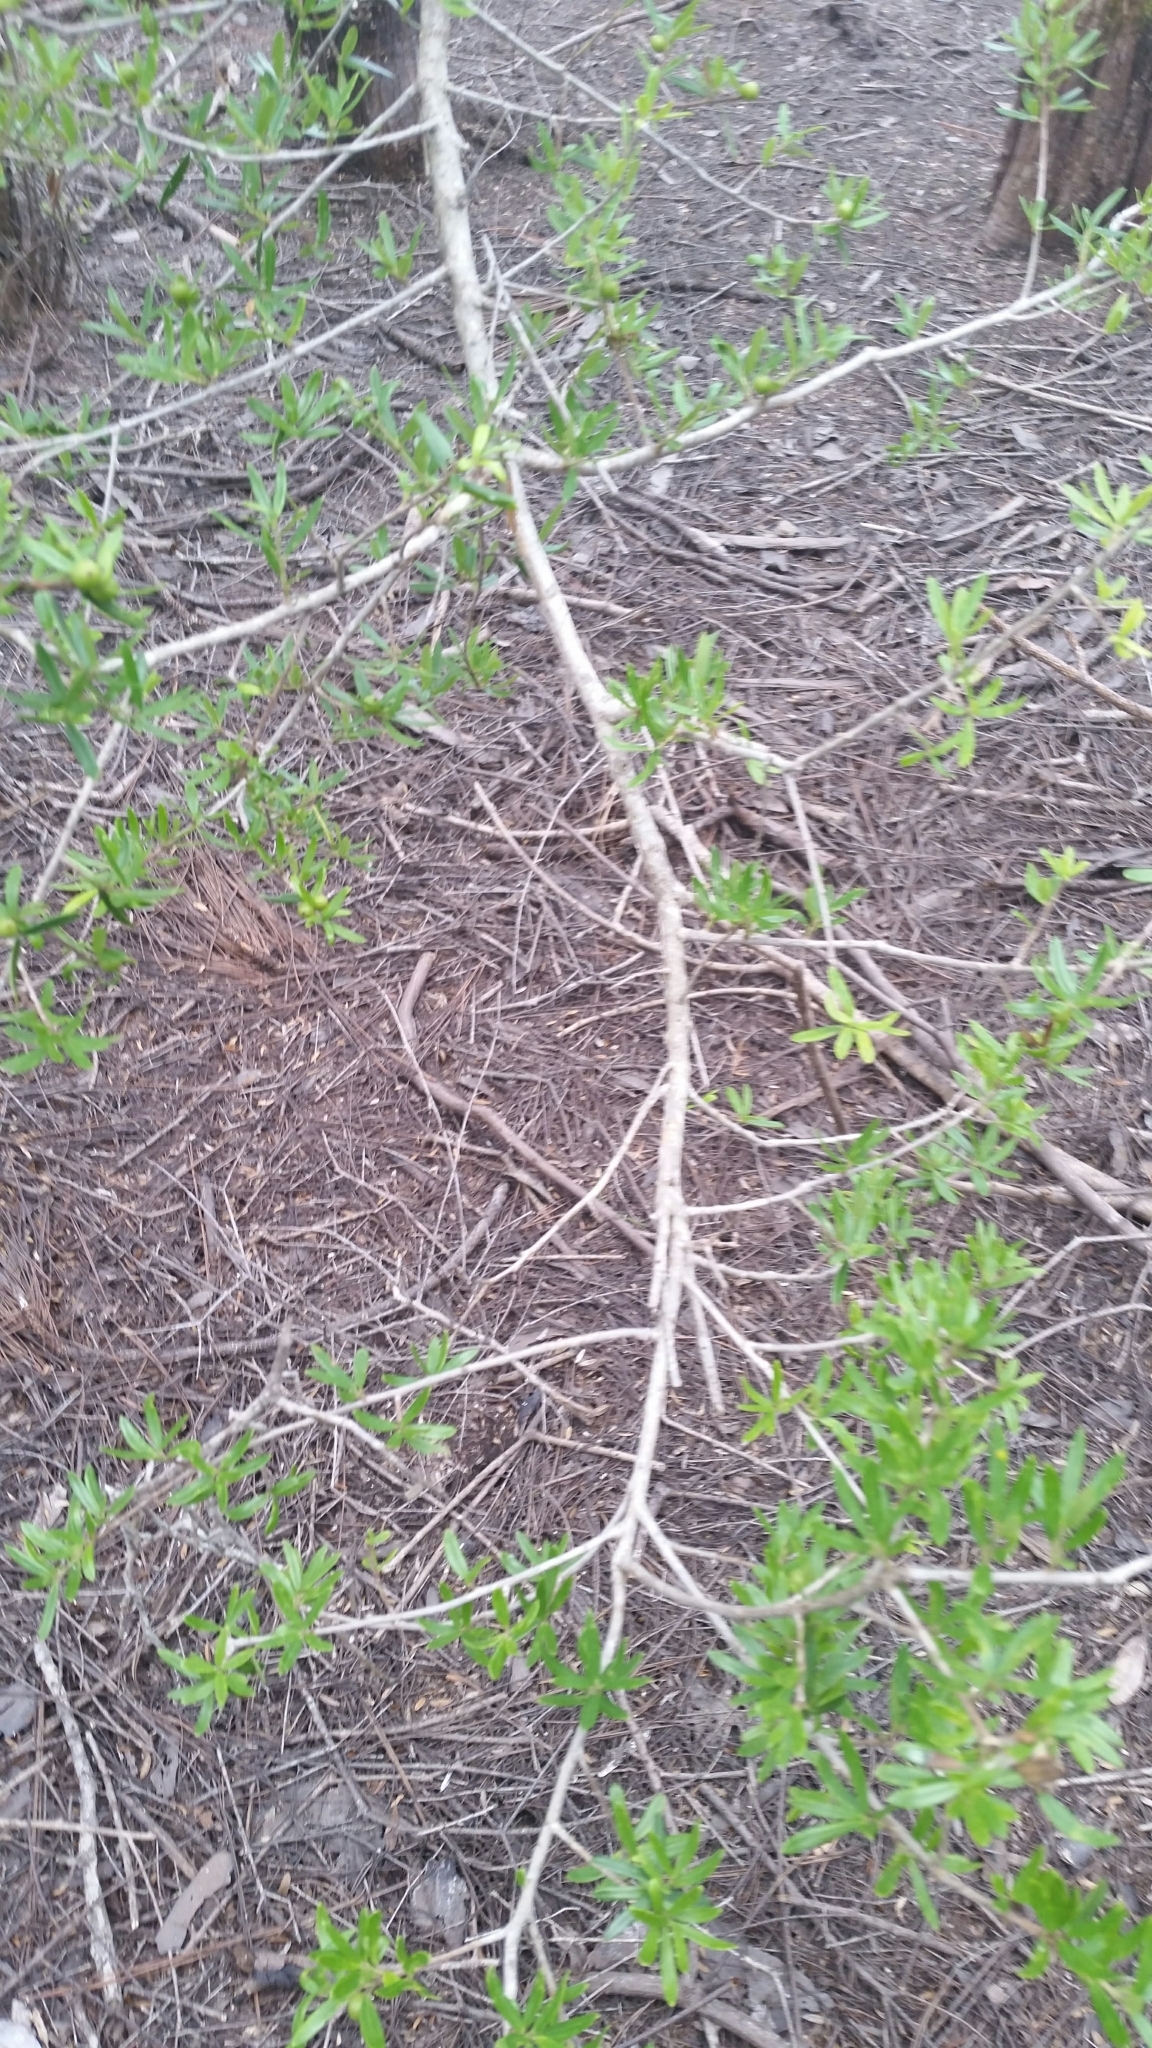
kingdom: Plantae
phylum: Tracheophyta
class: Magnoliopsida
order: Aquifoliales
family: Aquifoliaceae
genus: Ilex
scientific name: Ilex myrtifolia
